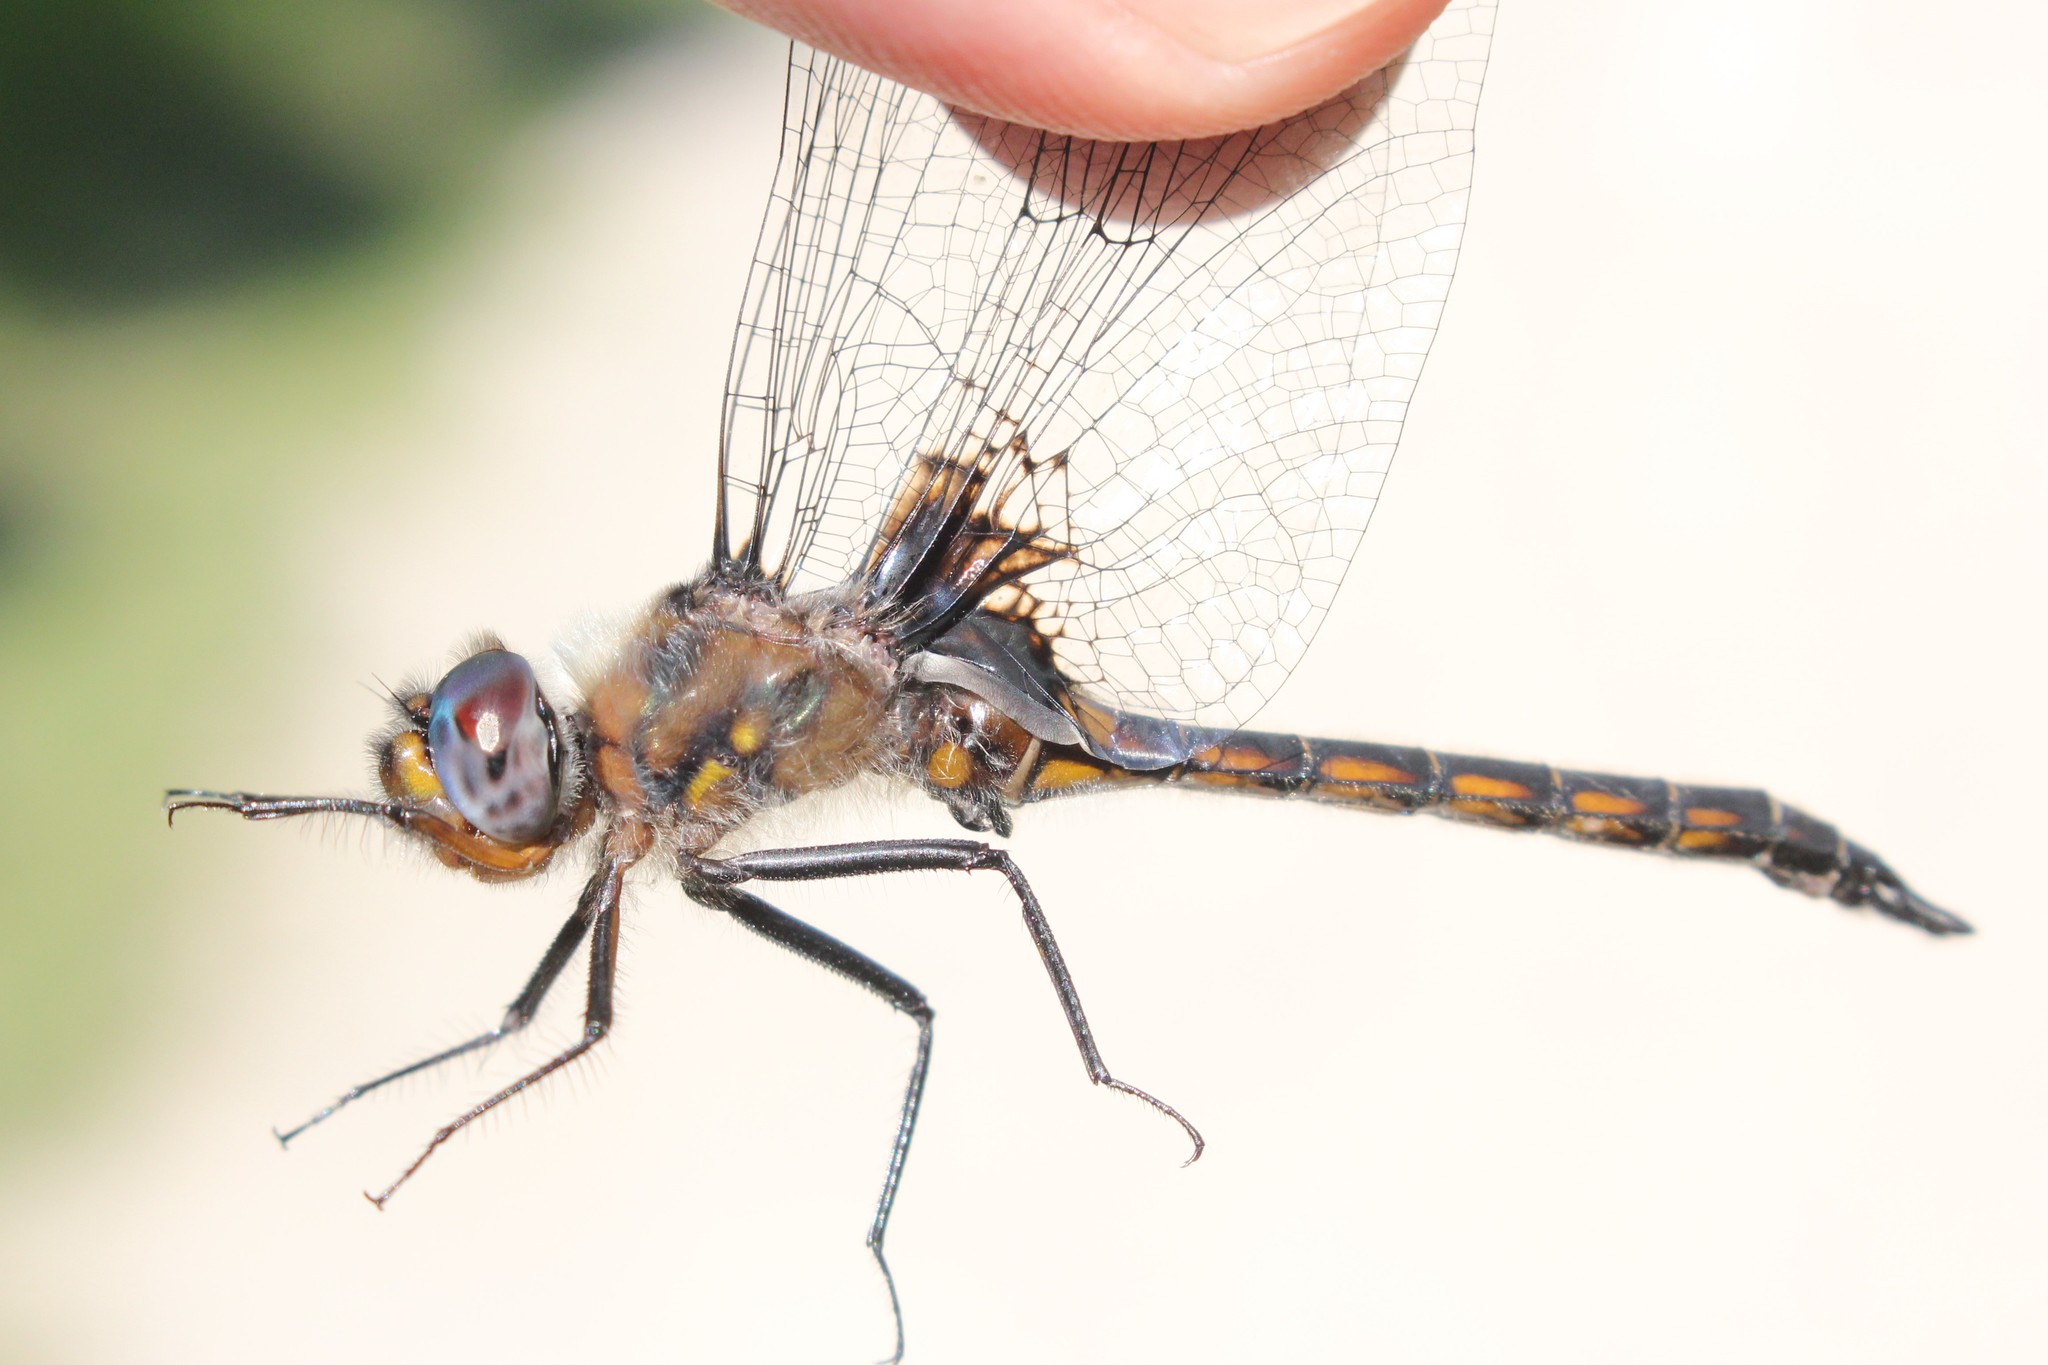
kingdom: Animalia
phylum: Arthropoda
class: Insecta
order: Odonata
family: Corduliidae
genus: Epitheca
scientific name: Epitheca cynosura
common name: Common baskettail
